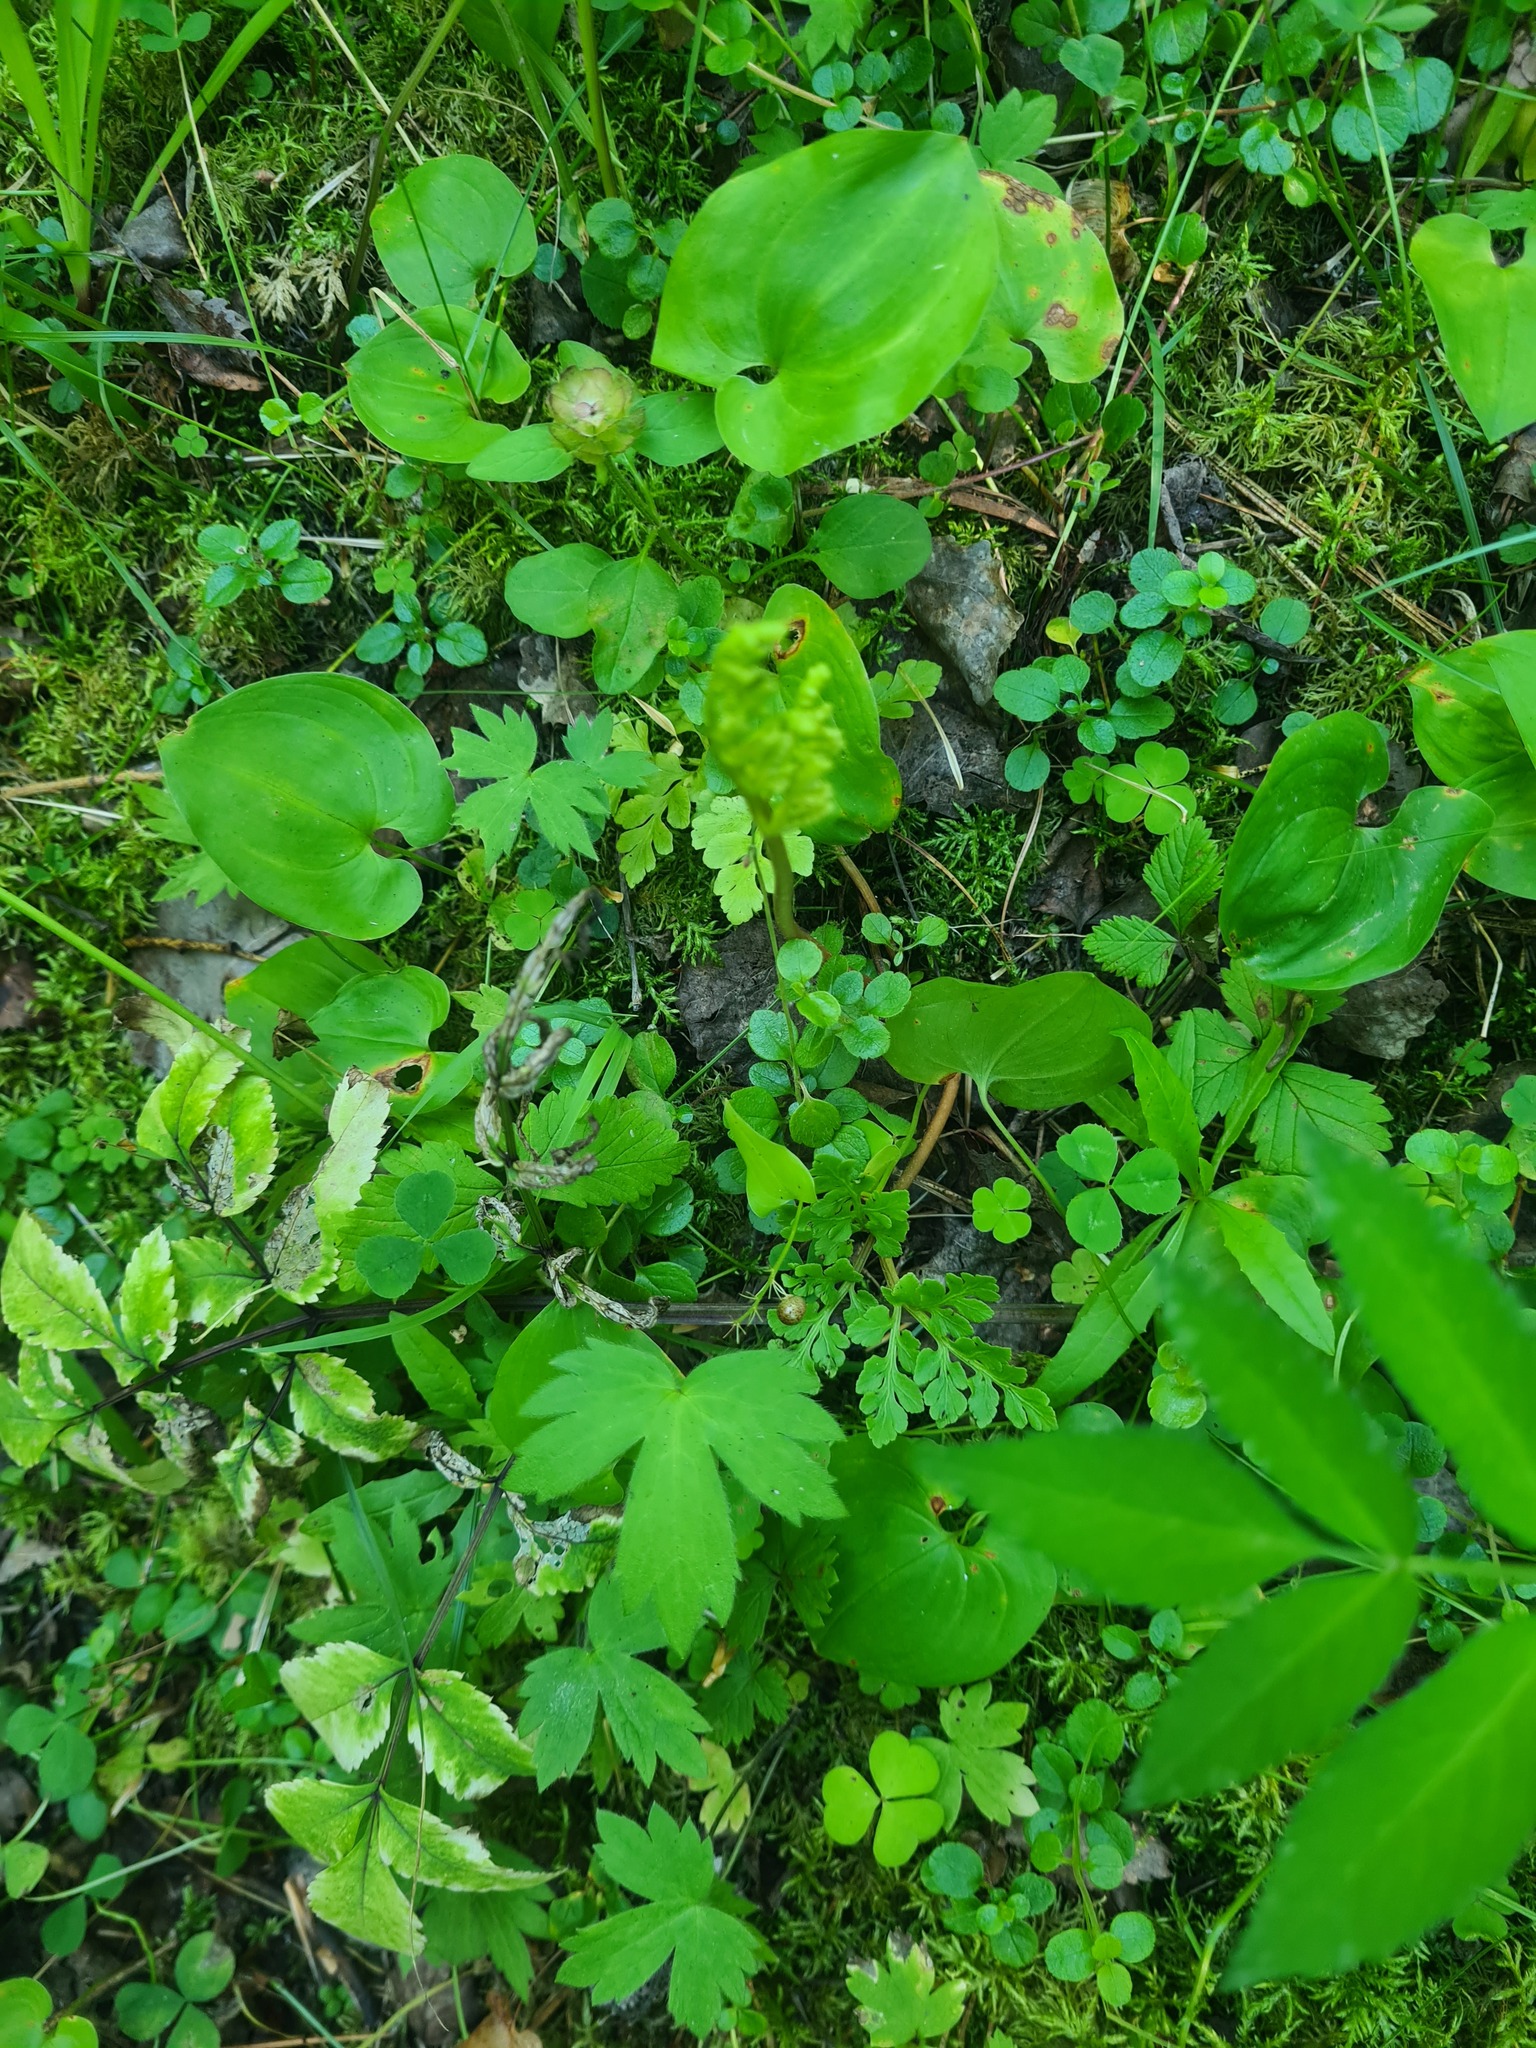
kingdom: Plantae
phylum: Tracheophyta
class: Polypodiopsida
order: Ophioglossales
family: Ophioglossaceae
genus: Sceptridium
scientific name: Sceptridium multifidum
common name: Leathery grape fern
